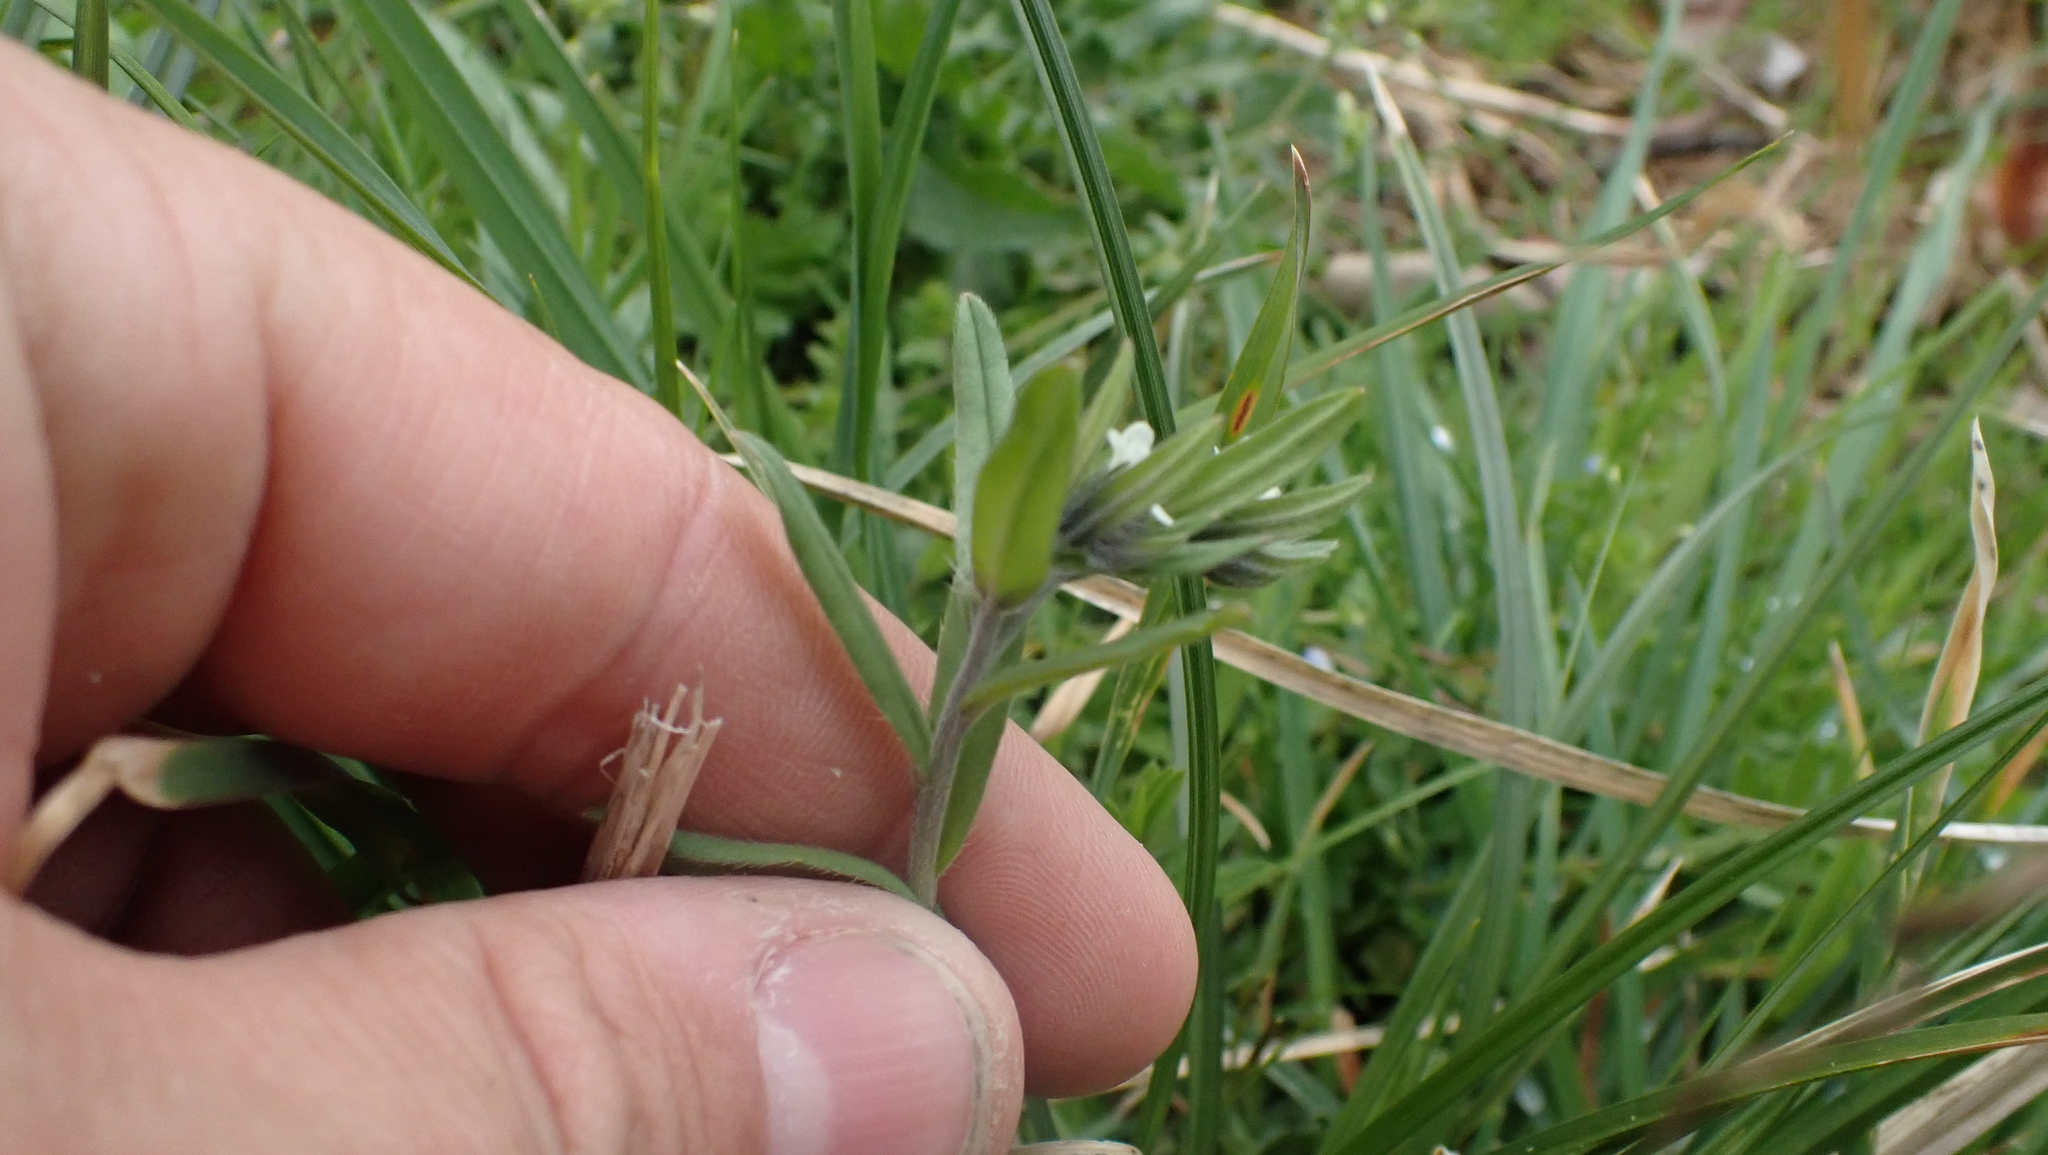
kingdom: Plantae
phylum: Tracheophyta
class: Magnoliopsida
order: Boraginales
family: Boraginaceae
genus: Buglossoides
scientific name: Buglossoides arvensis
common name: Corn gromwell
